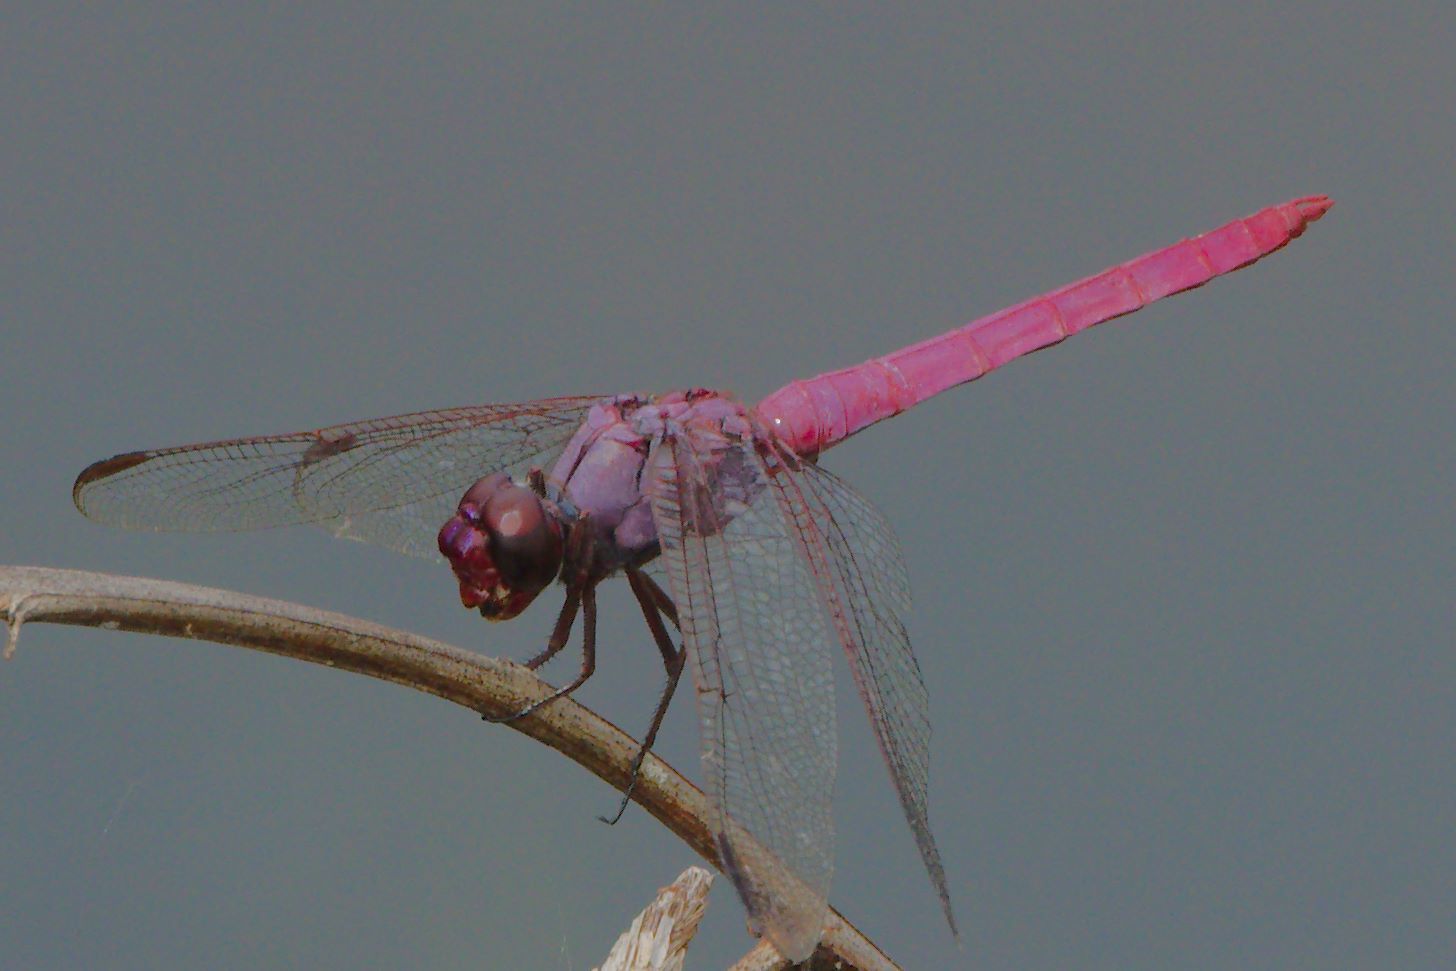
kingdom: Animalia
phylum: Arthropoda
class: Insecta
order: Odonata
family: Libellulidae
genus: Orthemis
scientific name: Orthemis ferruginea
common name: Roseate skimmer
